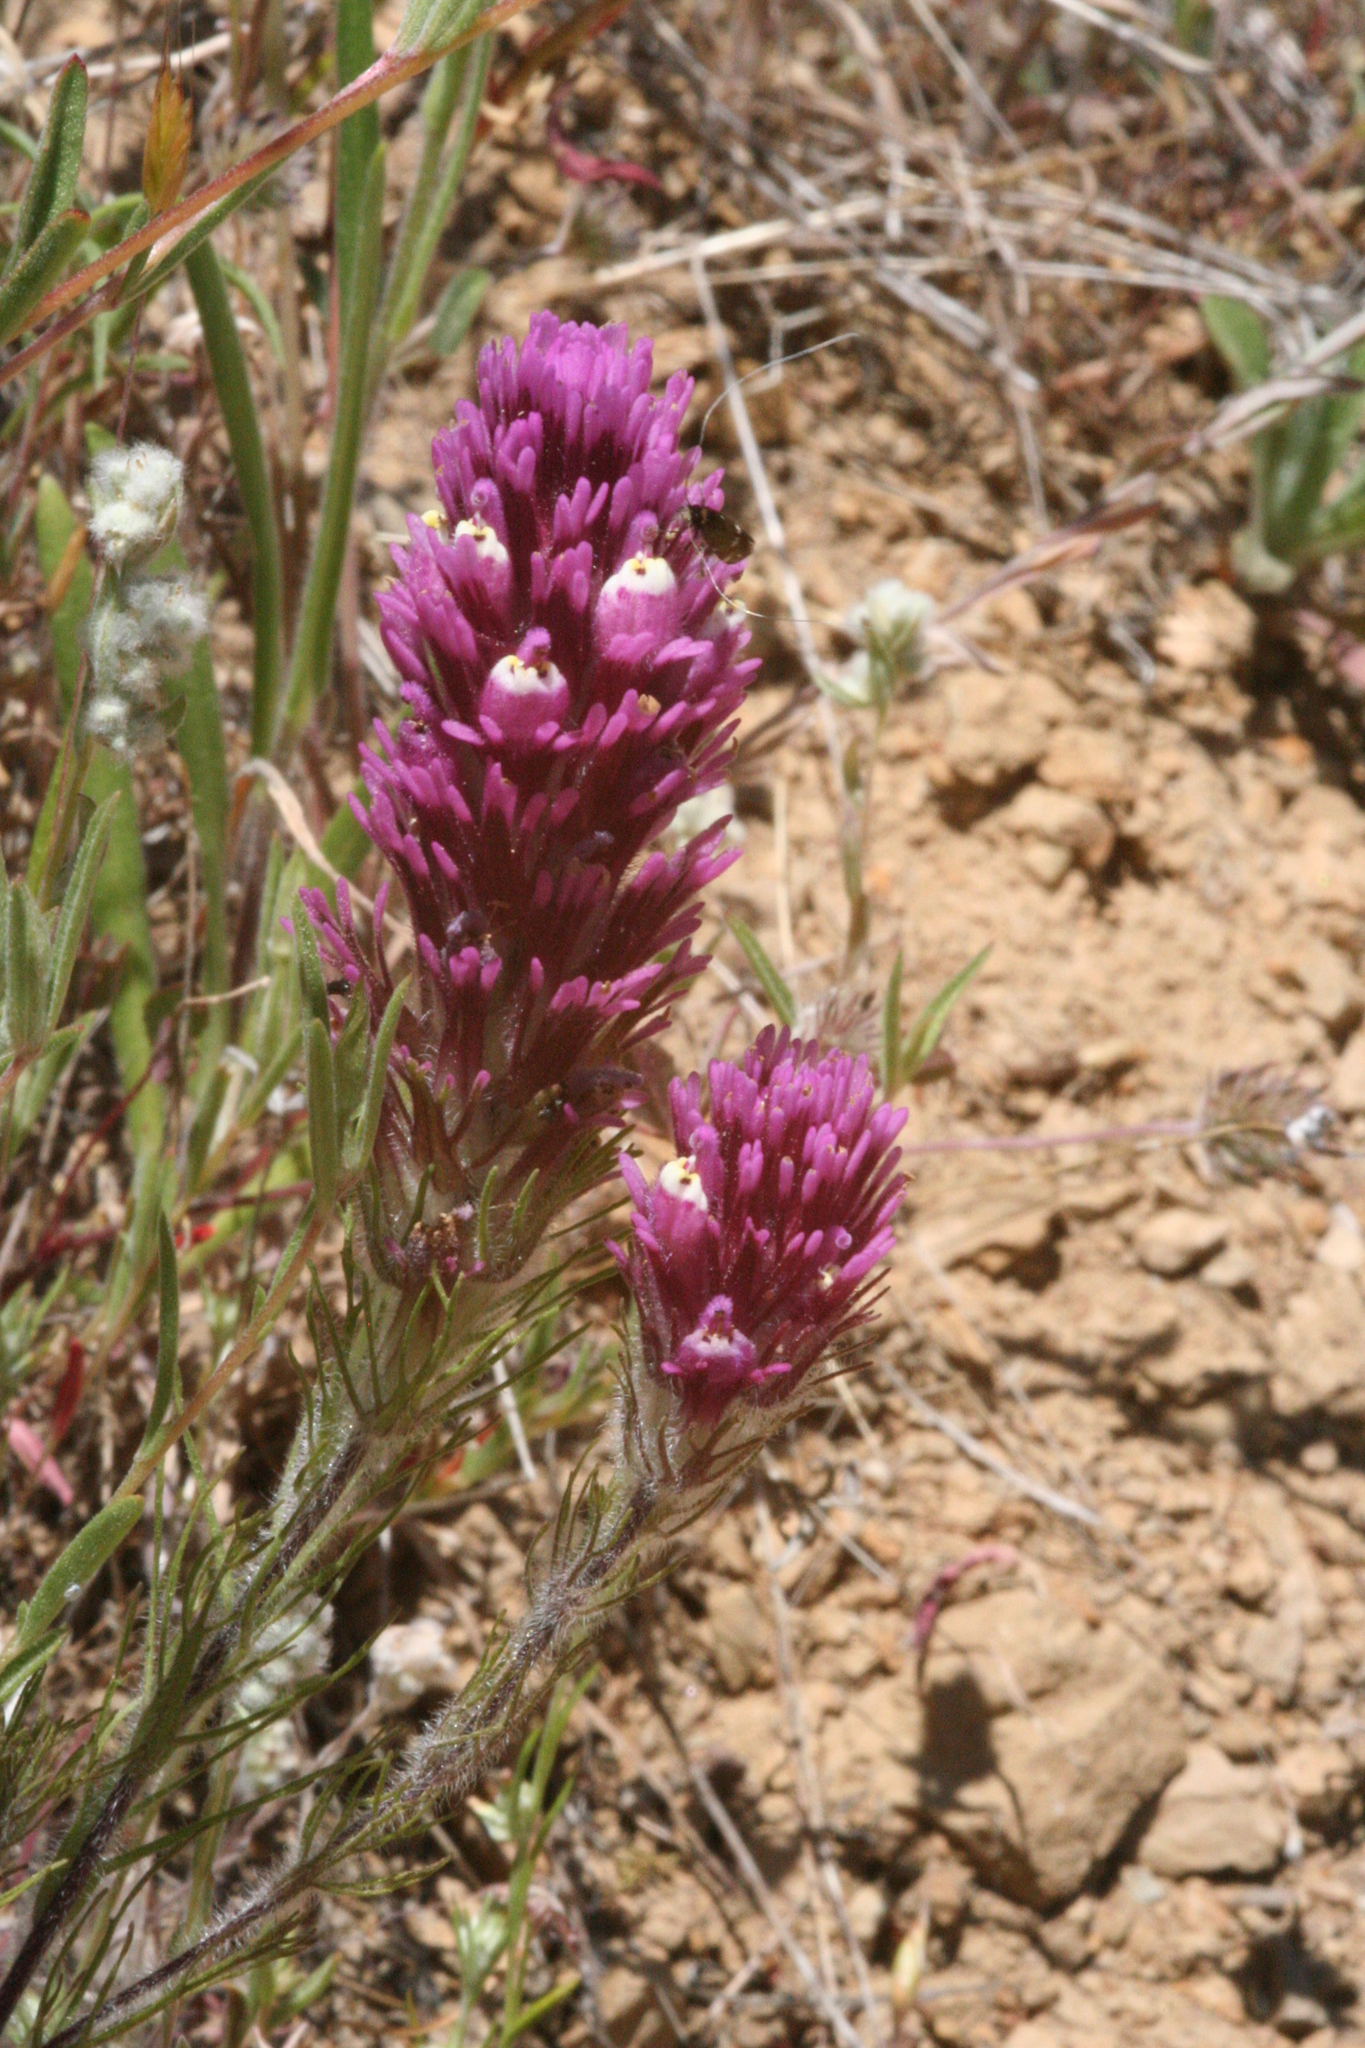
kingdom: Plantae
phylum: Tracheophyta
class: Magnoliopsida
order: Lamiales
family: Orobanchaceae
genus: Castilleja
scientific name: Castilleja exserta
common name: Purple owl-clover
